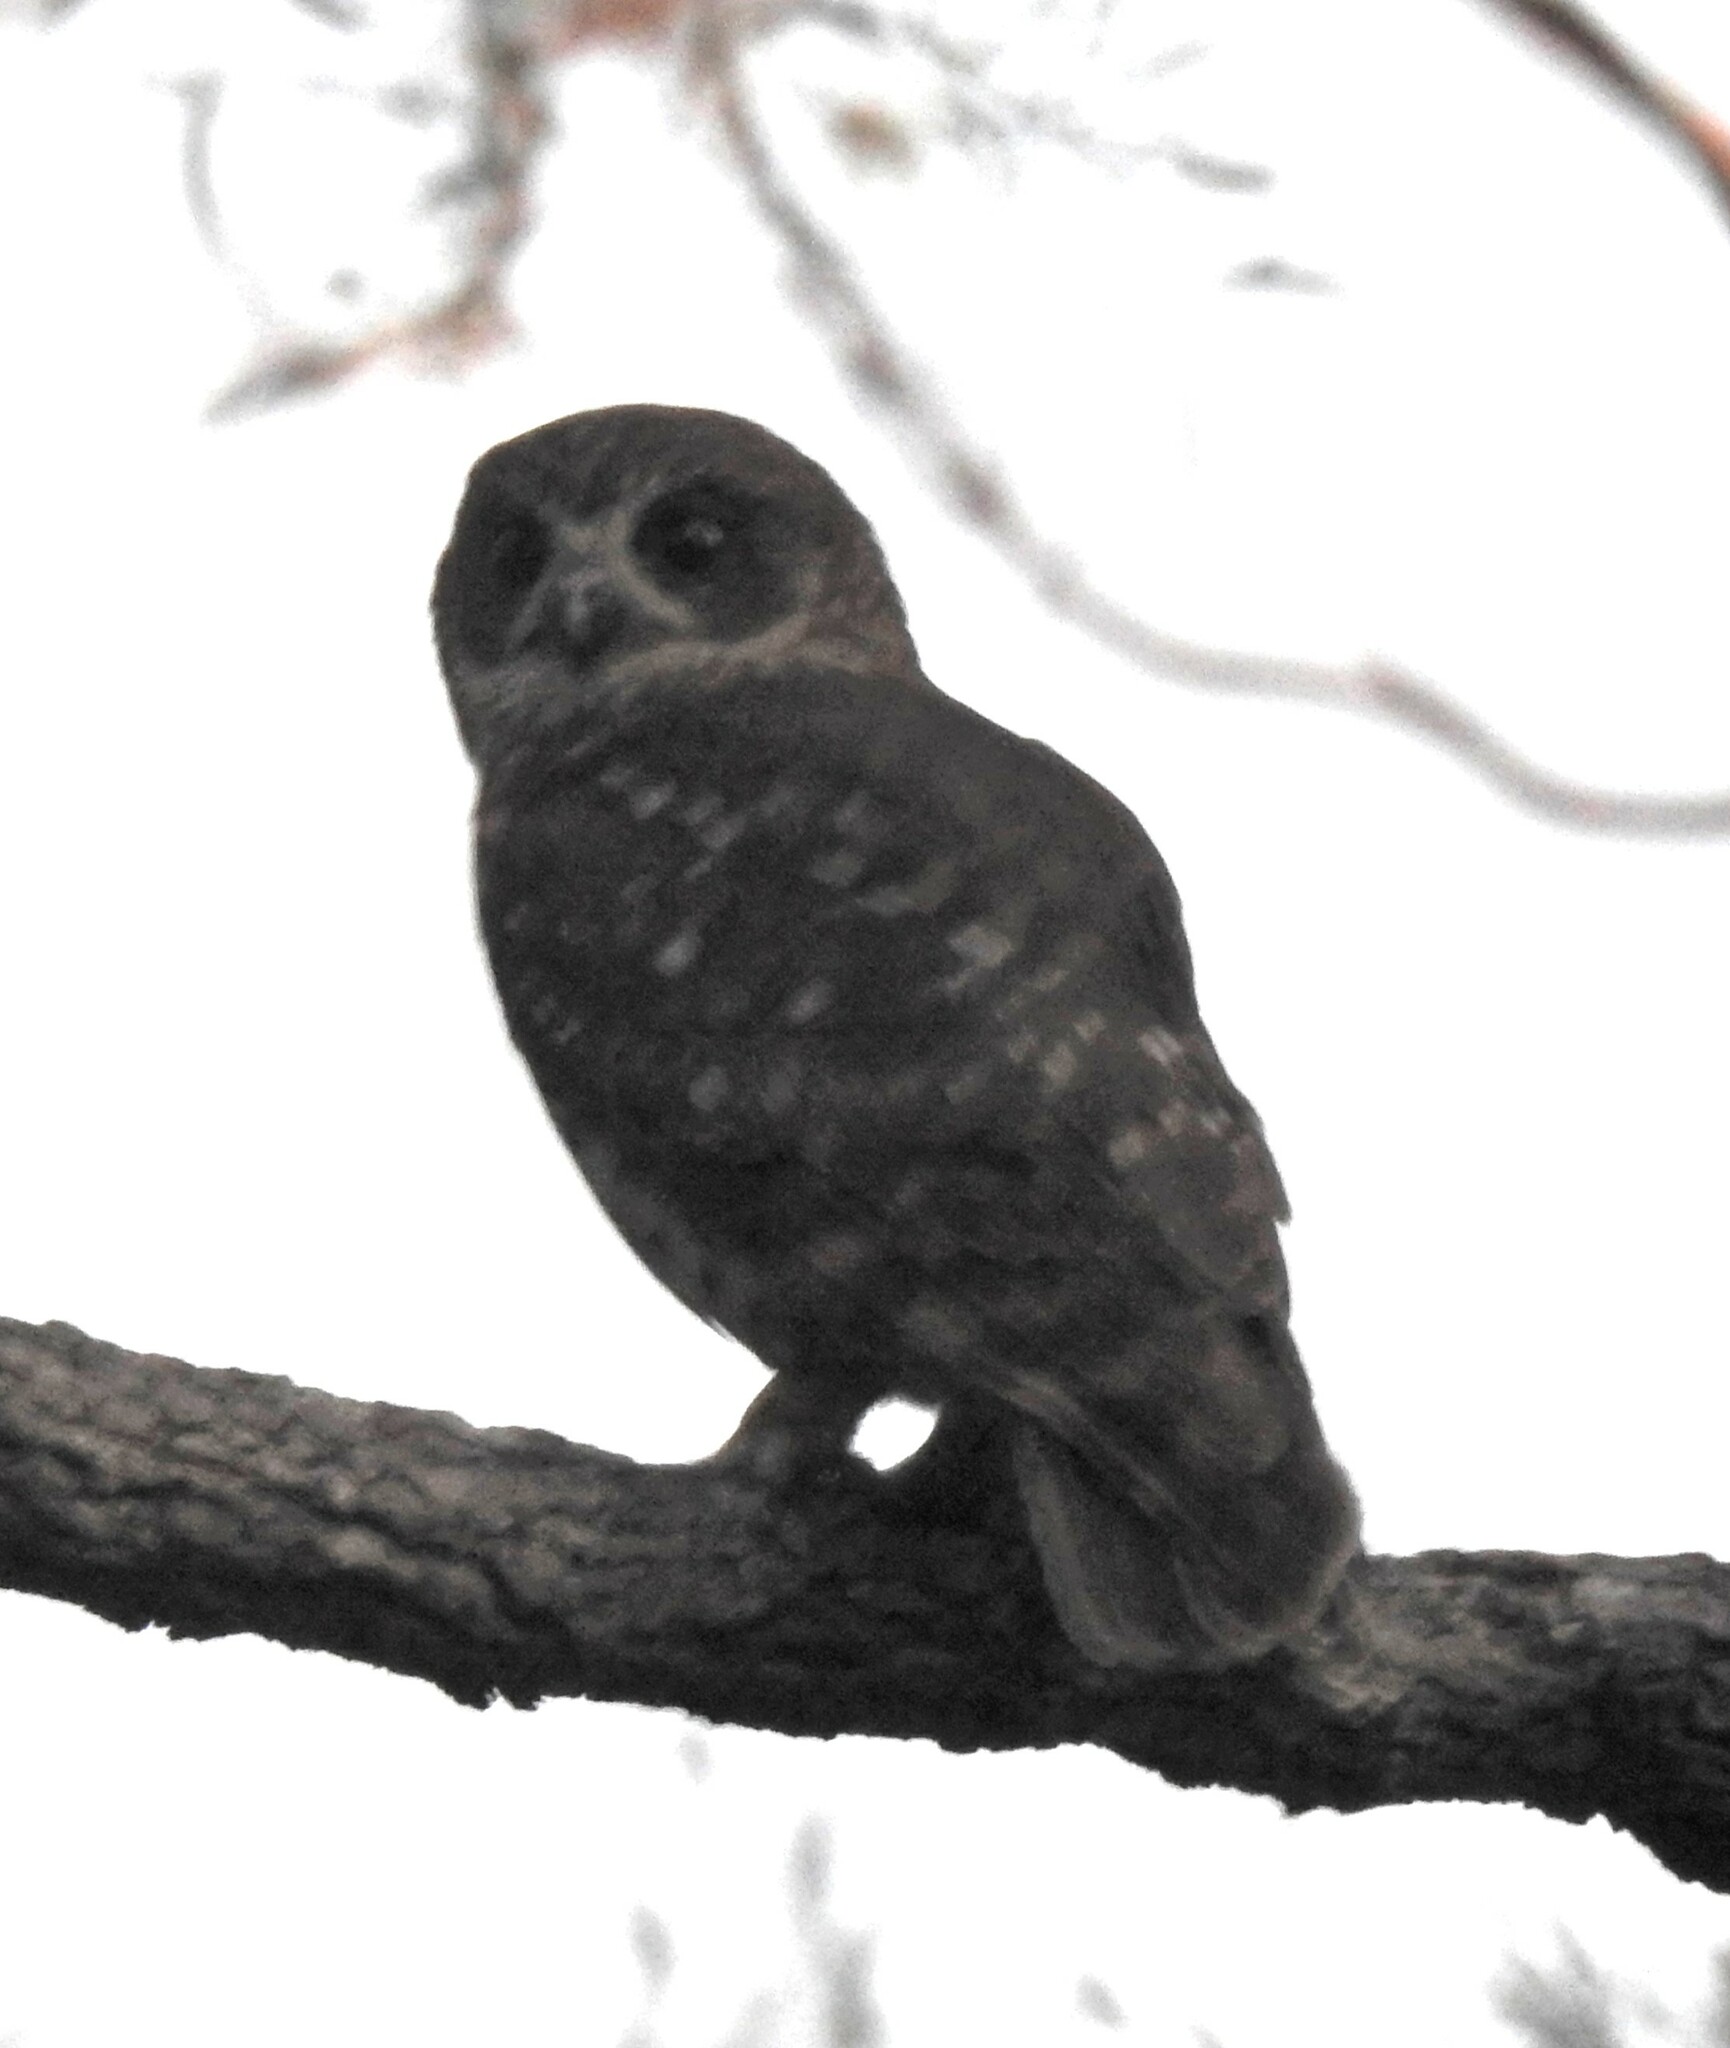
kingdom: Animalia
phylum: Chordata
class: Aves
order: Strigiformes
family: Strigidae
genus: Ninox
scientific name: Ninox boobook
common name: Southern boobook
